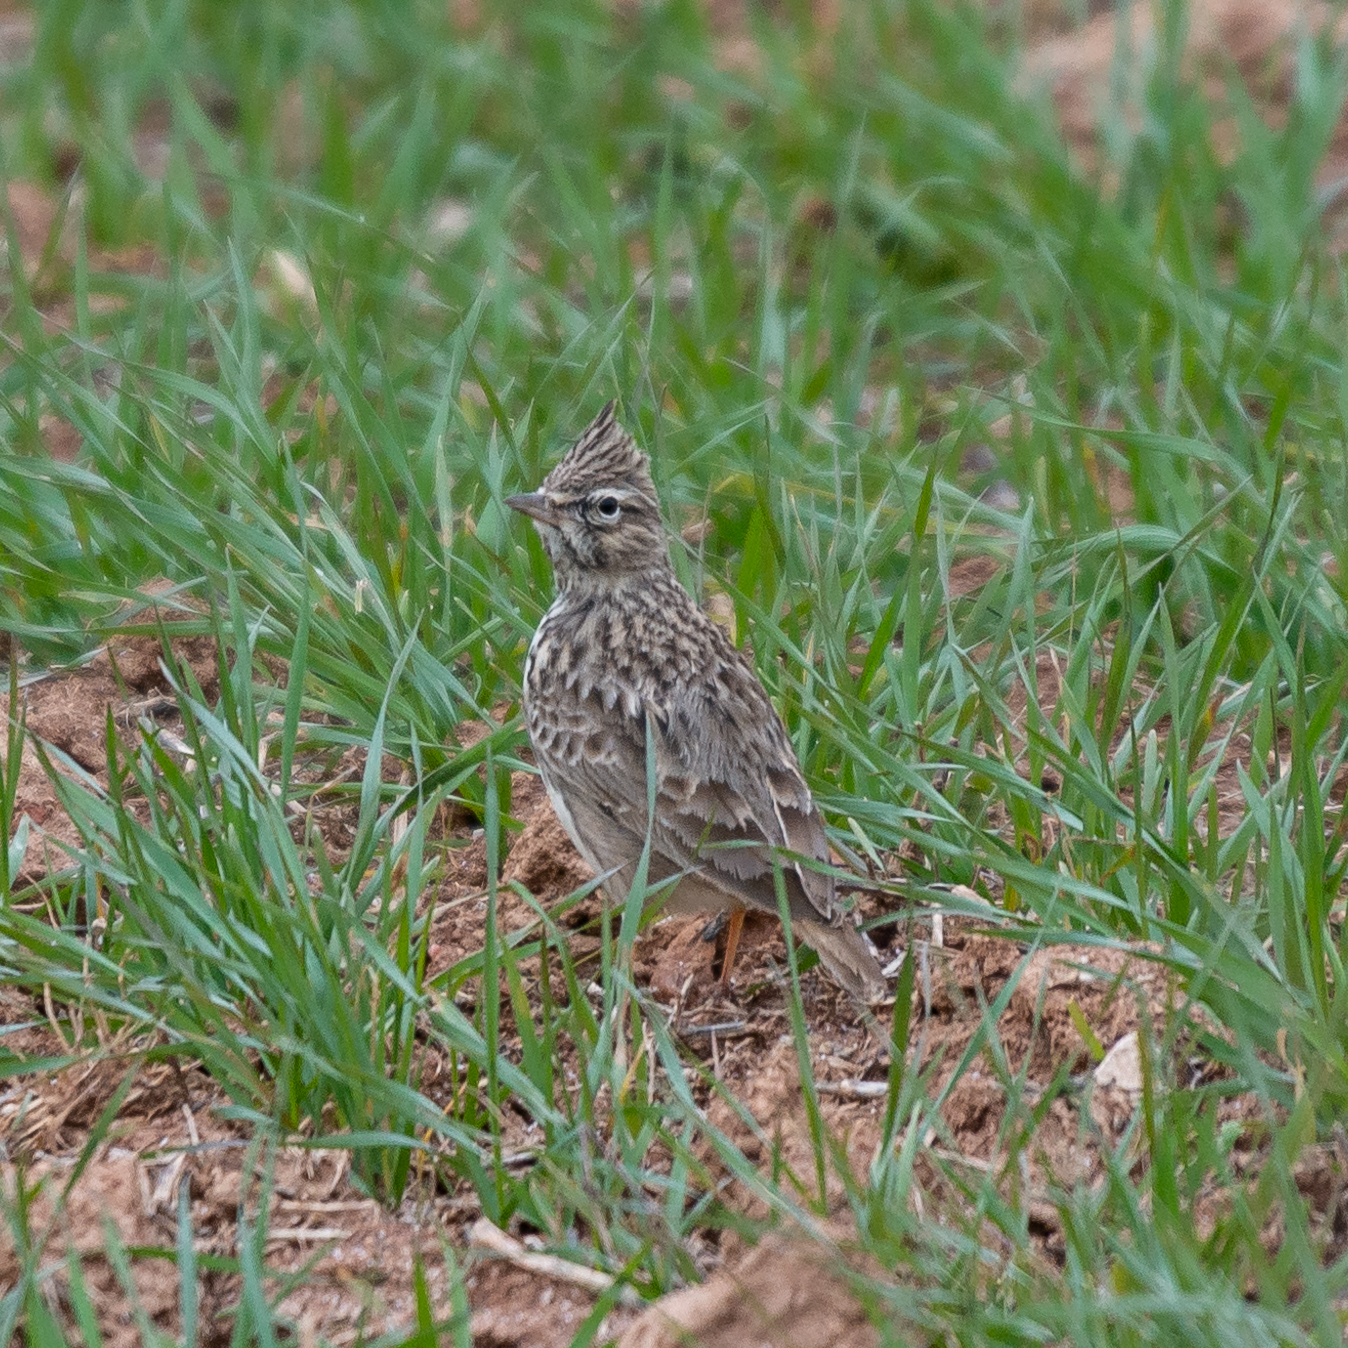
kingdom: Animalia
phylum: Chordata
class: Aves
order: Passeriformes
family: Alaudidae
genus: Galerida
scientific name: Galerida theklae
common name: Thekla lark
